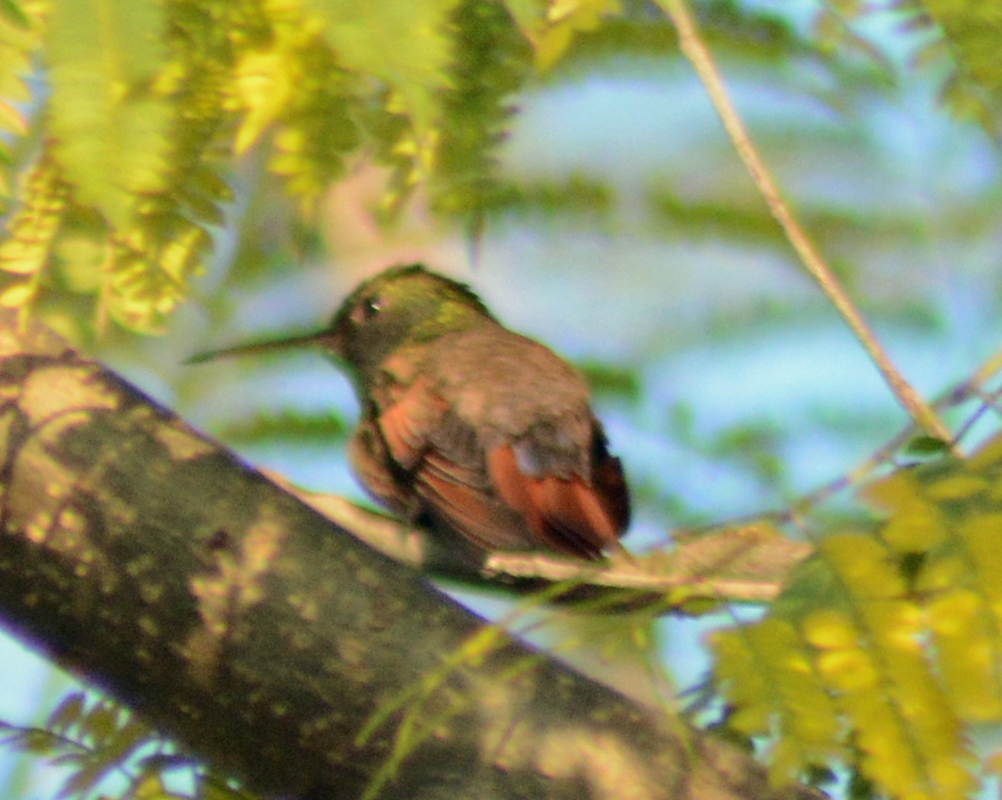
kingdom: Animalia
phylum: Chordata
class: Aves
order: Apodiformes
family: Trochilidae
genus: Saucerottia
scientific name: Saucerottia beryllina
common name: Berylline hummingbird
